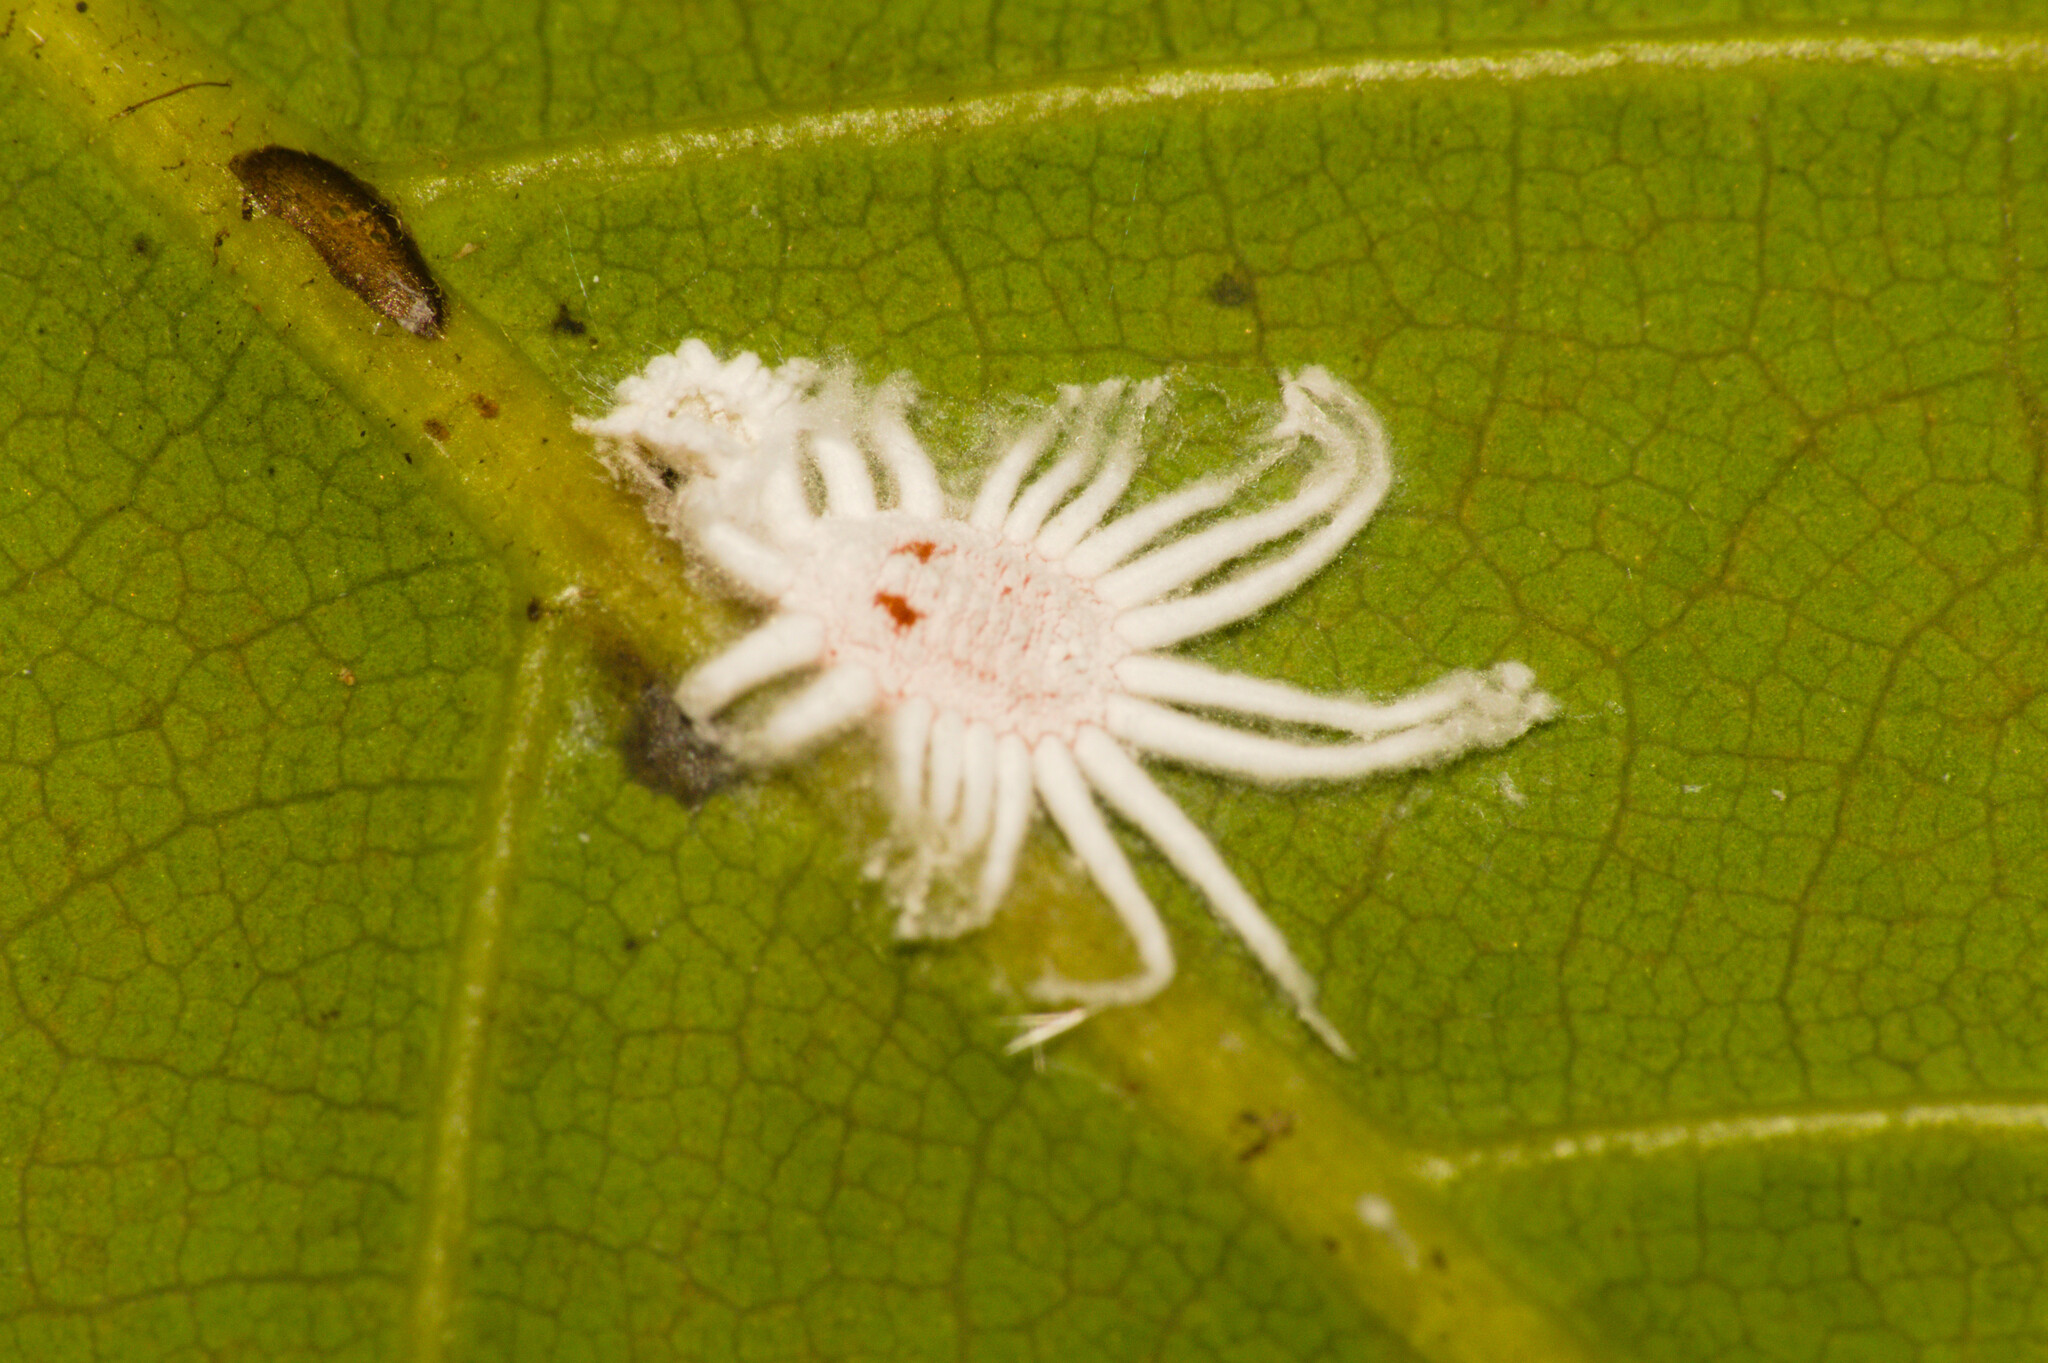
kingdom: Animalia
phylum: Arthropoda
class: Insecta
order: Hemiptera
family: Margarodidae
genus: Icerya
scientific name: Icerya aegyptiaca
